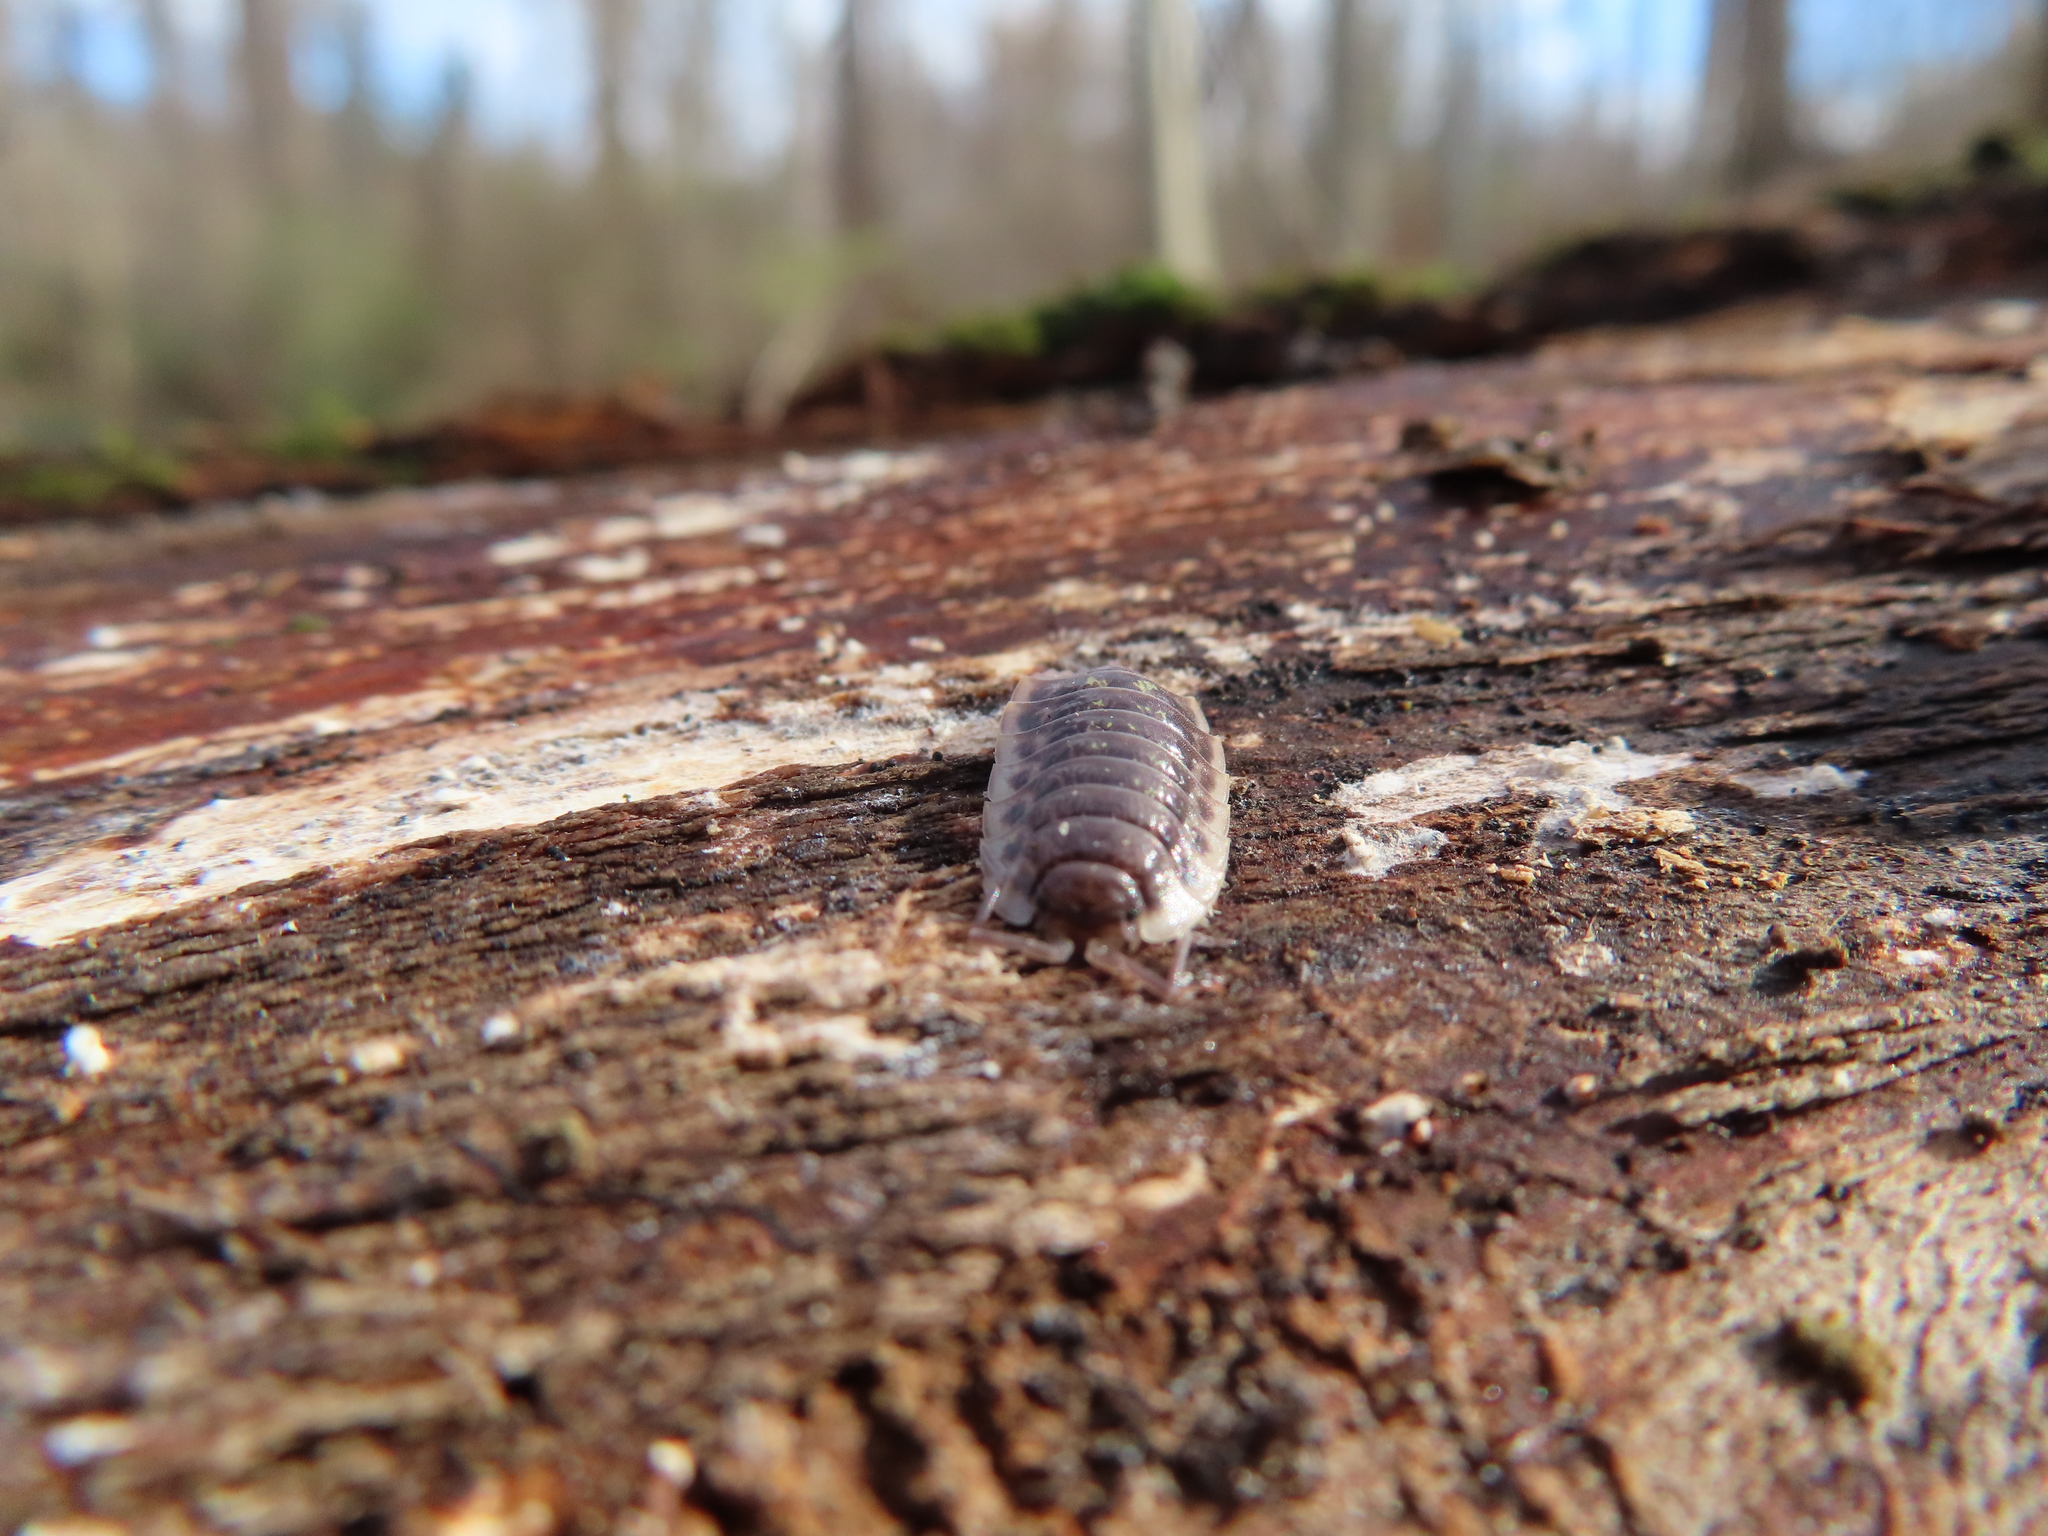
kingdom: Animalia
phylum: Arthropoda
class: Malacostraca
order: Isopoda
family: Oniscidae
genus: Oniscus
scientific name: Oniscus asellus
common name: Common shiny woodlouse
